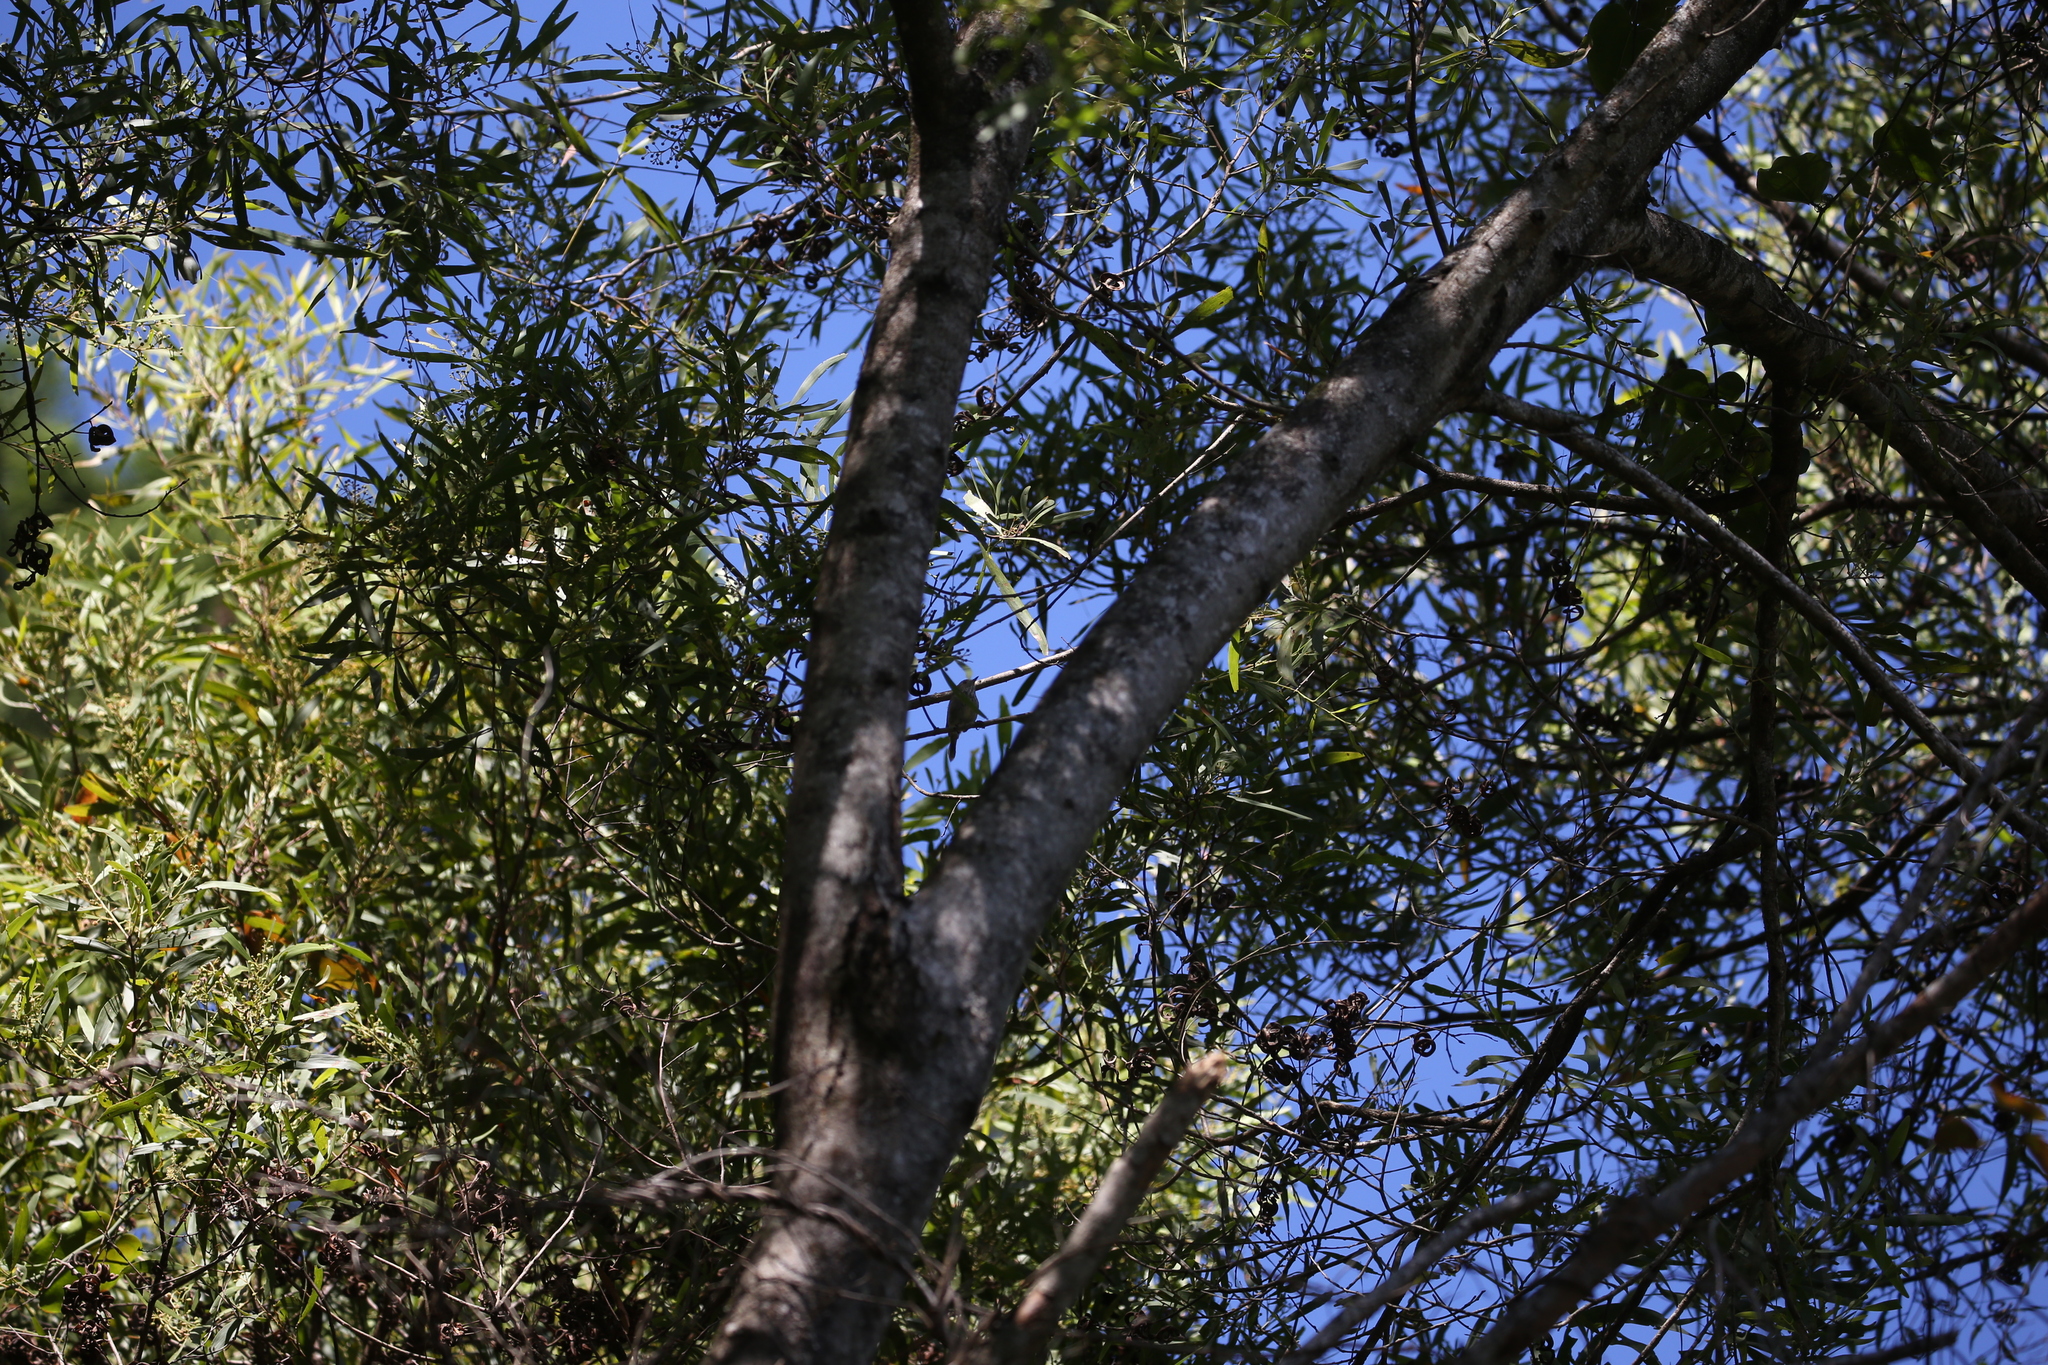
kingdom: Animalia
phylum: Chordata
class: Aves
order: Passeriformes
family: Acanthizidae
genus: Acanthiza
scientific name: Acanthiza pusilla
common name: Brown thornbill
